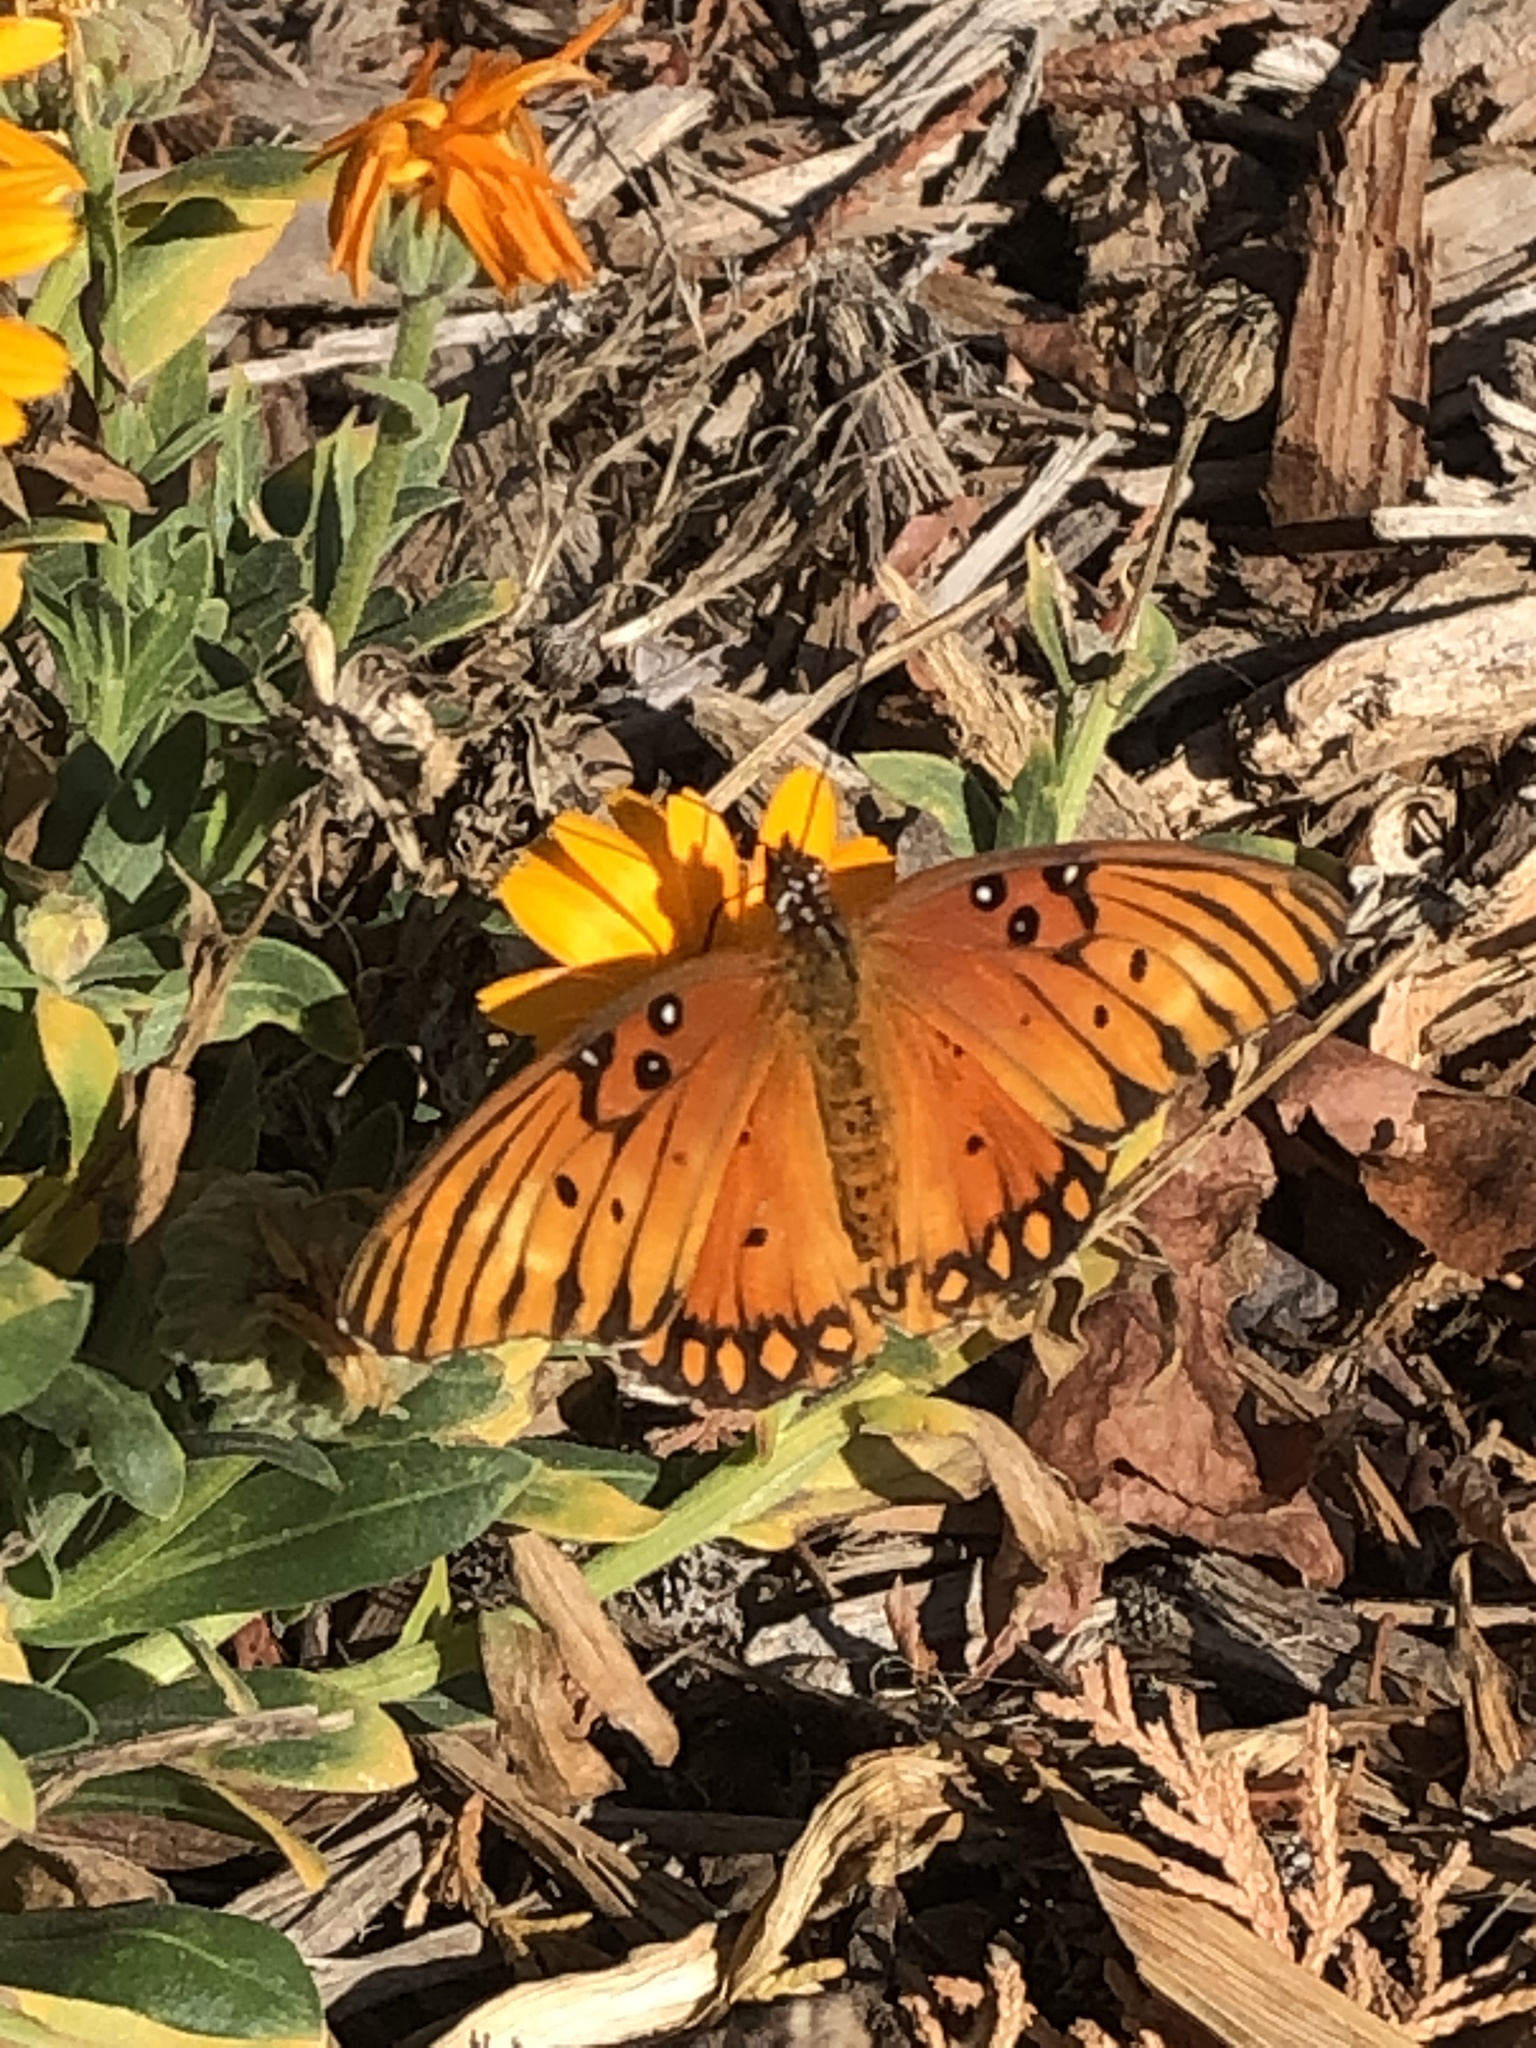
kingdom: Animalia
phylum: Arthropoda
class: Insecta
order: Lepidoptera
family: Nymphalidae
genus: Dione
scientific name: Dione vanillae
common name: Gulf fritillary
